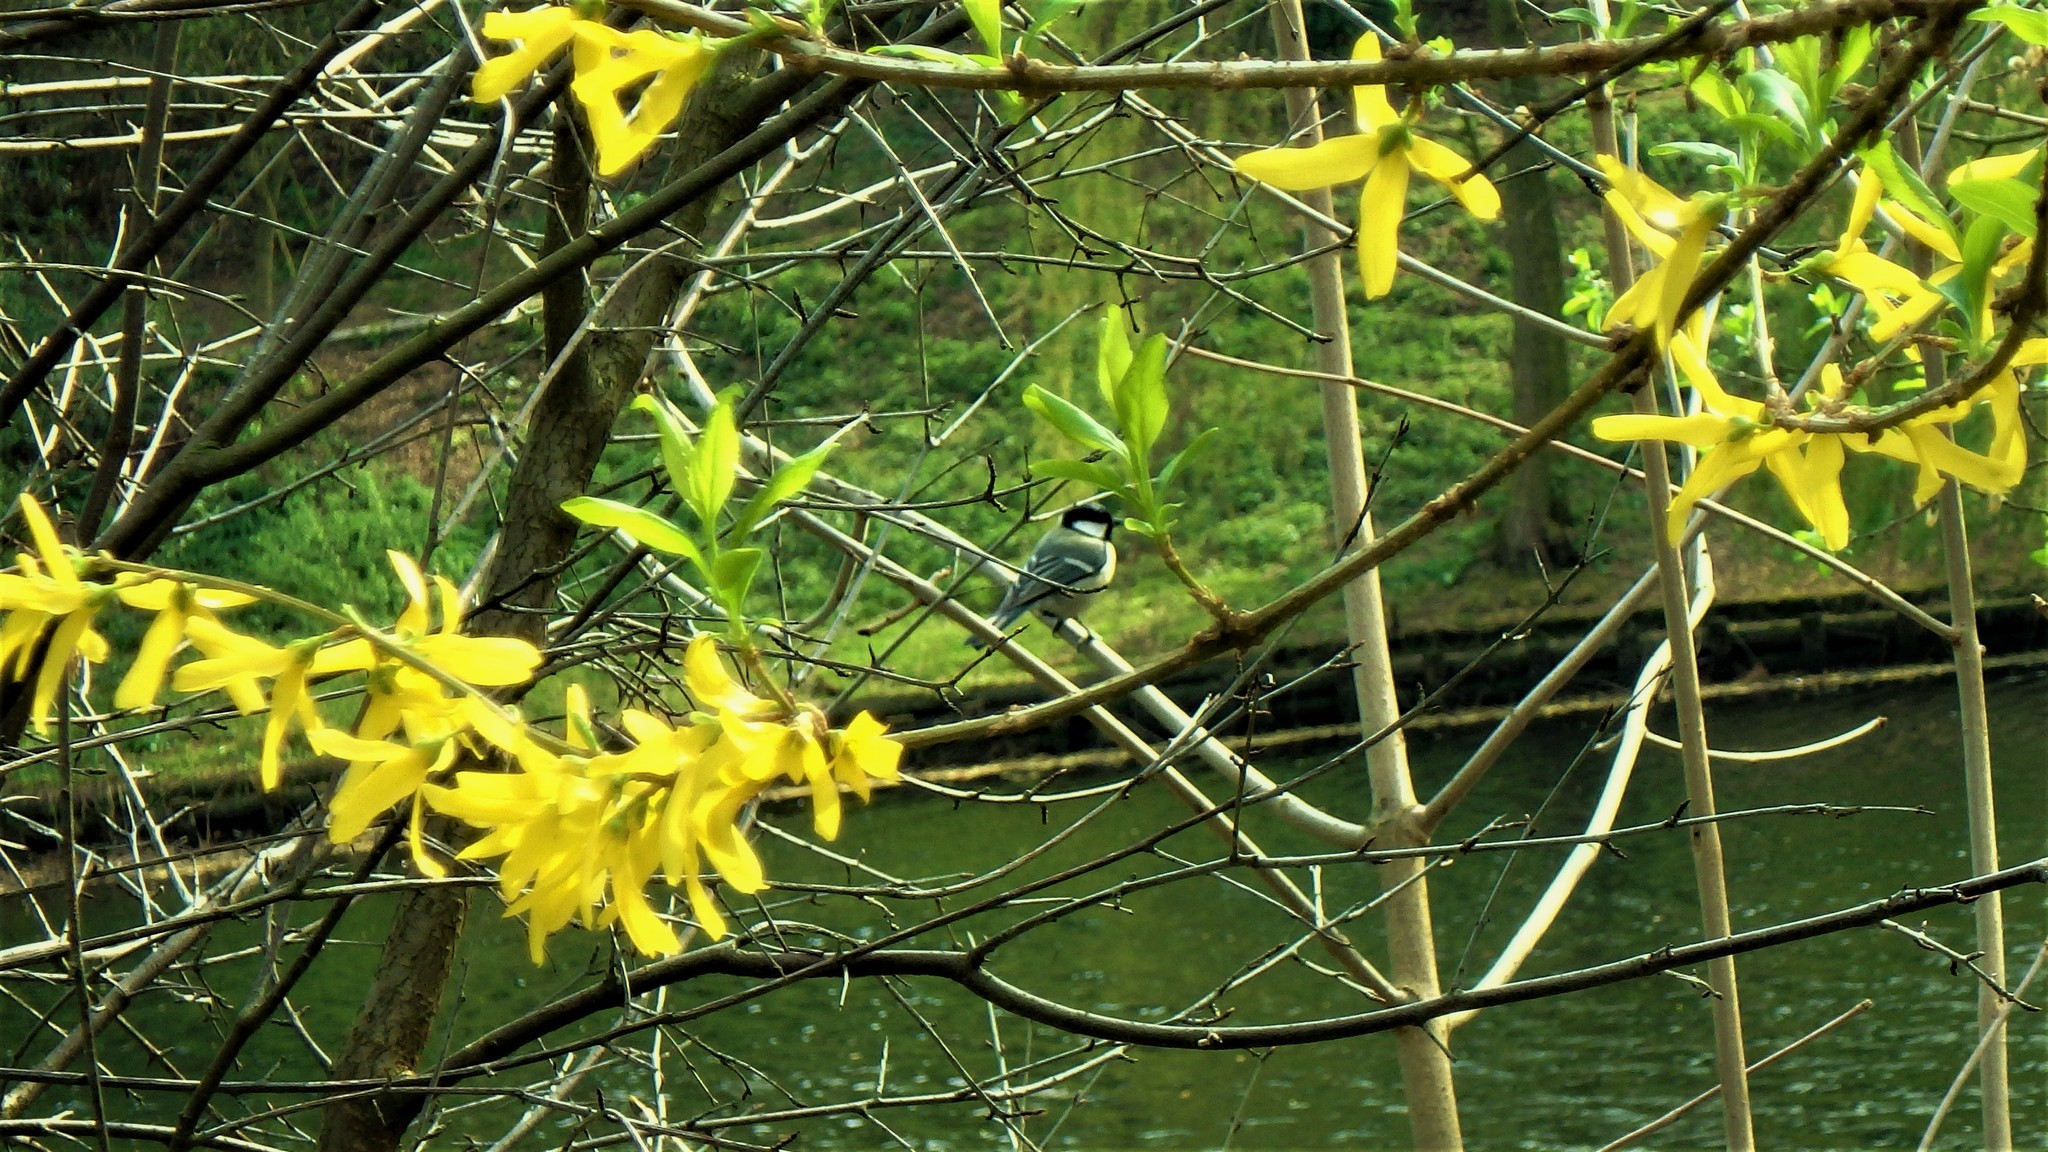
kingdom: Animalia
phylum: Chordata
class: Aves
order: Passeriformes
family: Paridae
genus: Parus
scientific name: Parus major
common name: Great tit
